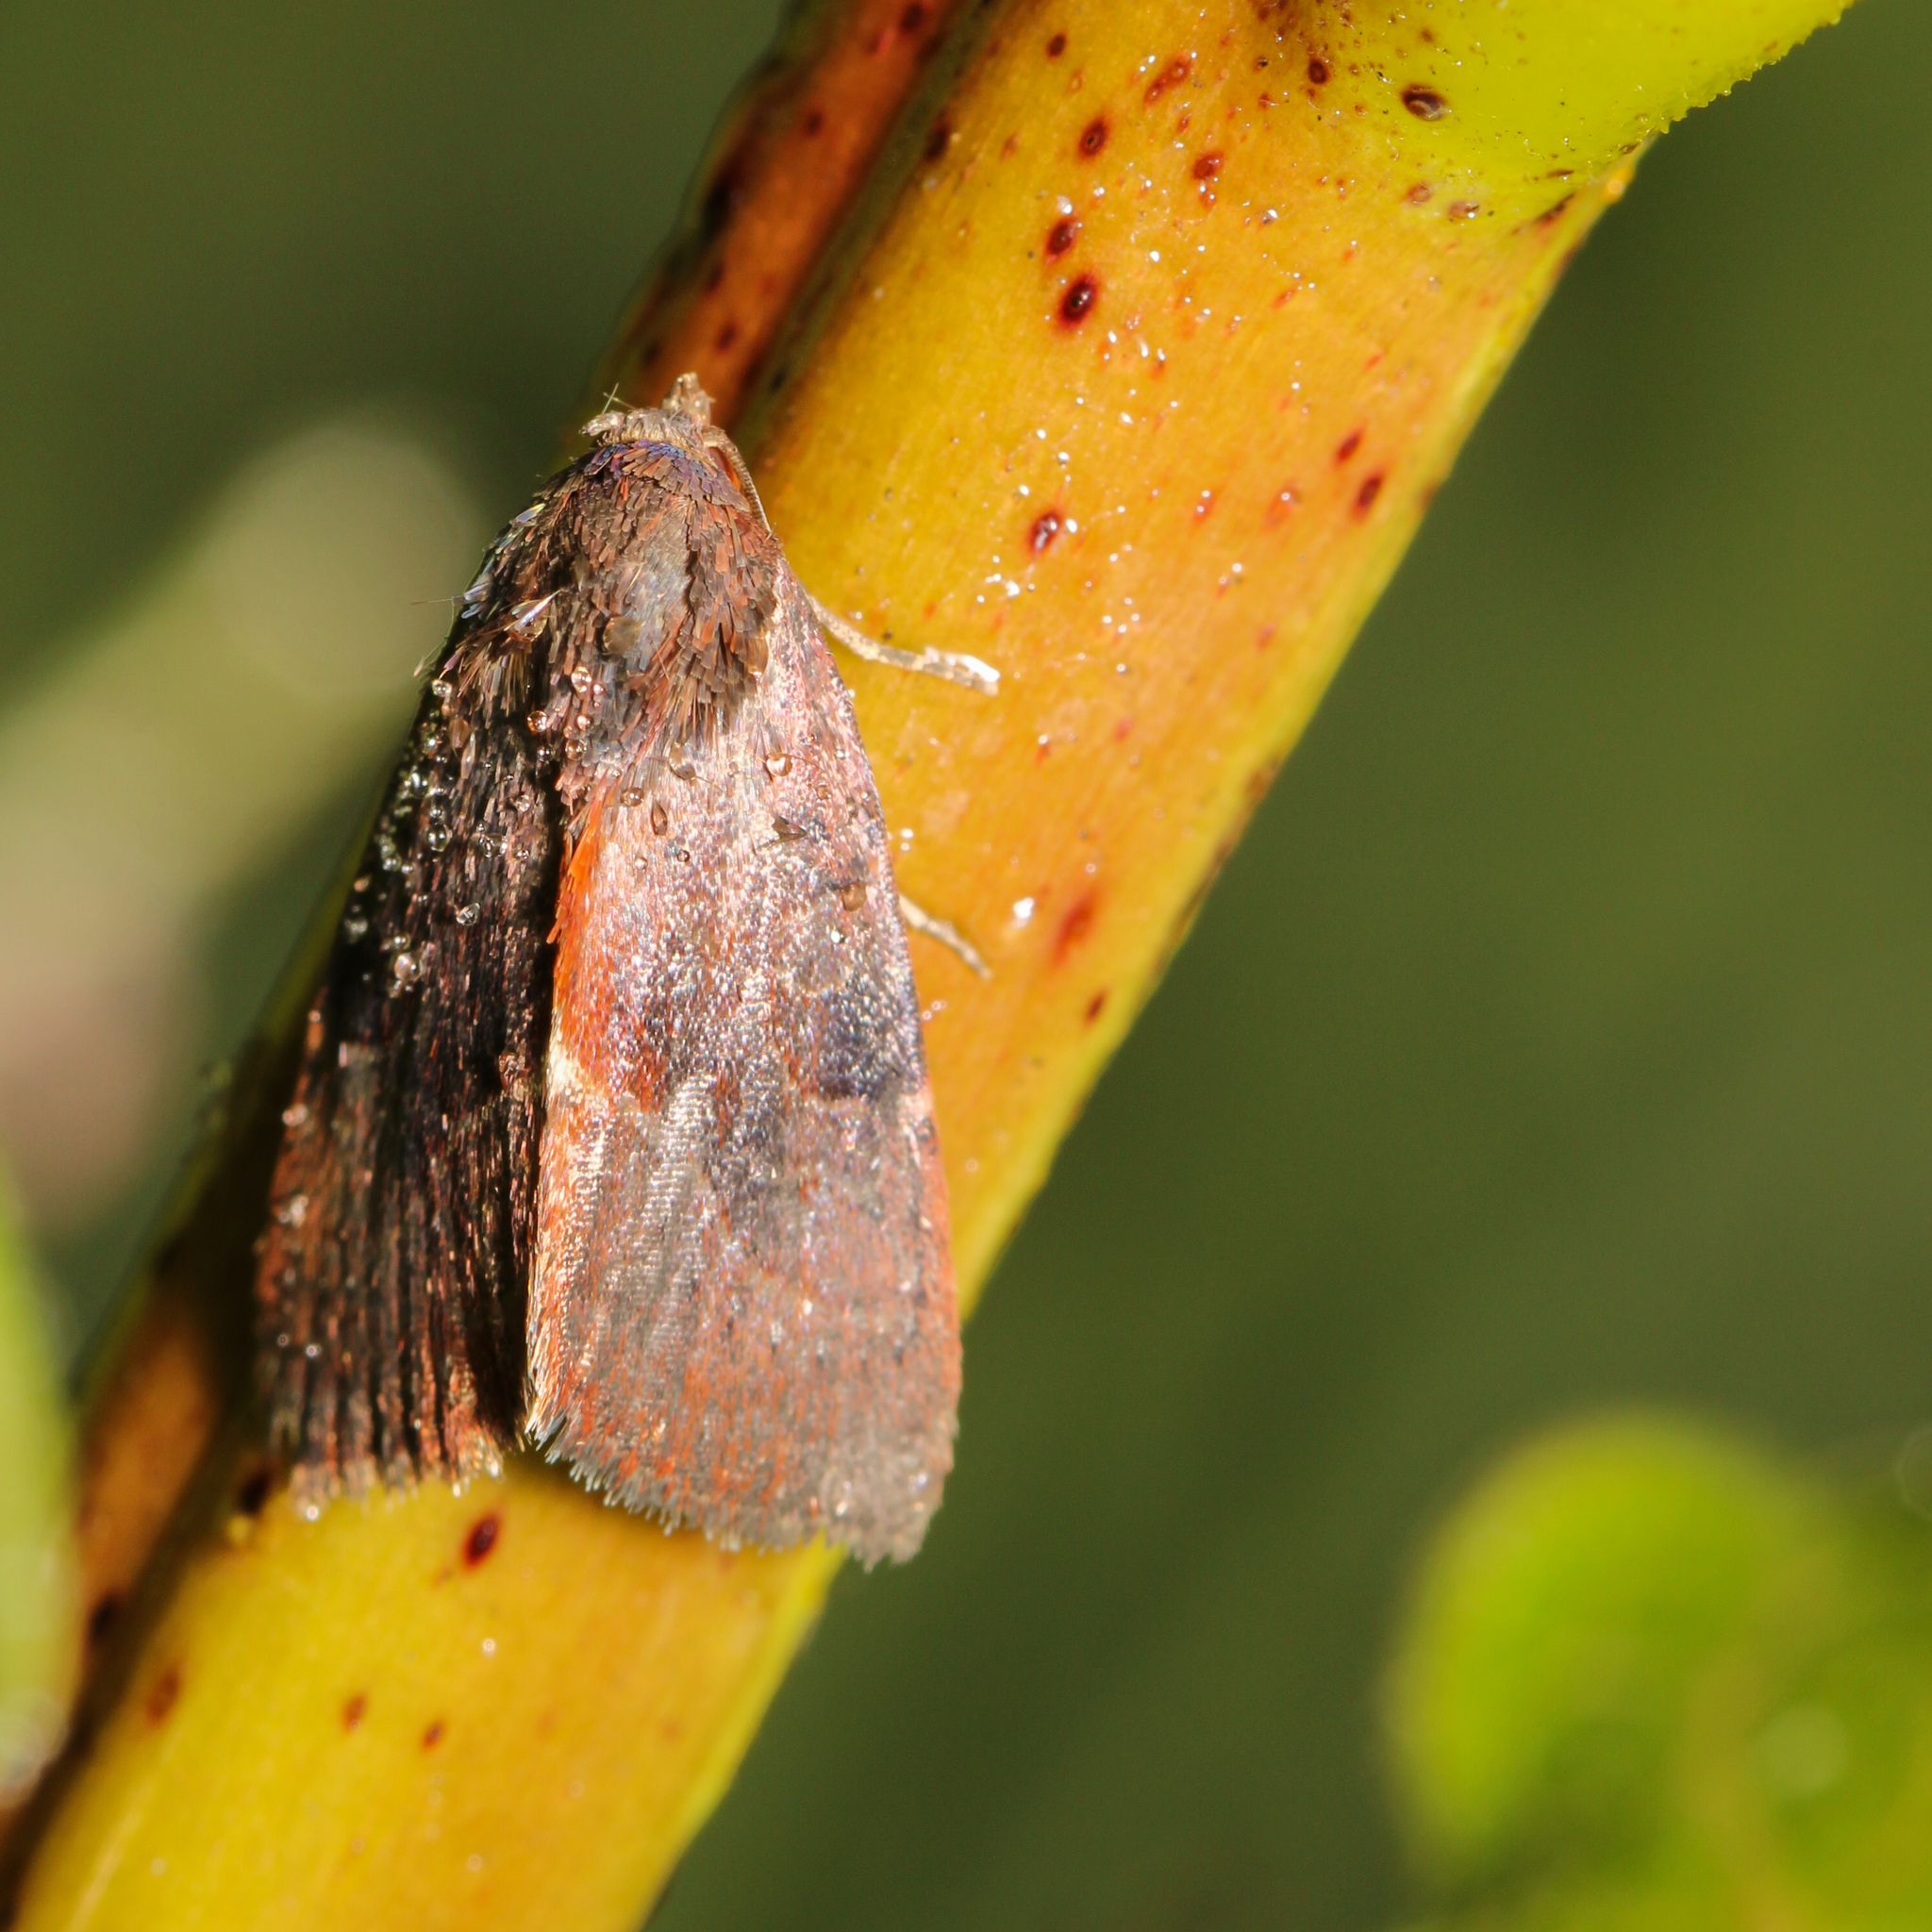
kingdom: Animalia
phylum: Arthropoda
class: Insecta
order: Lepidoptera
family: Noctuidae
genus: Galgula
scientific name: Galgula partita
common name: Wedgeling
